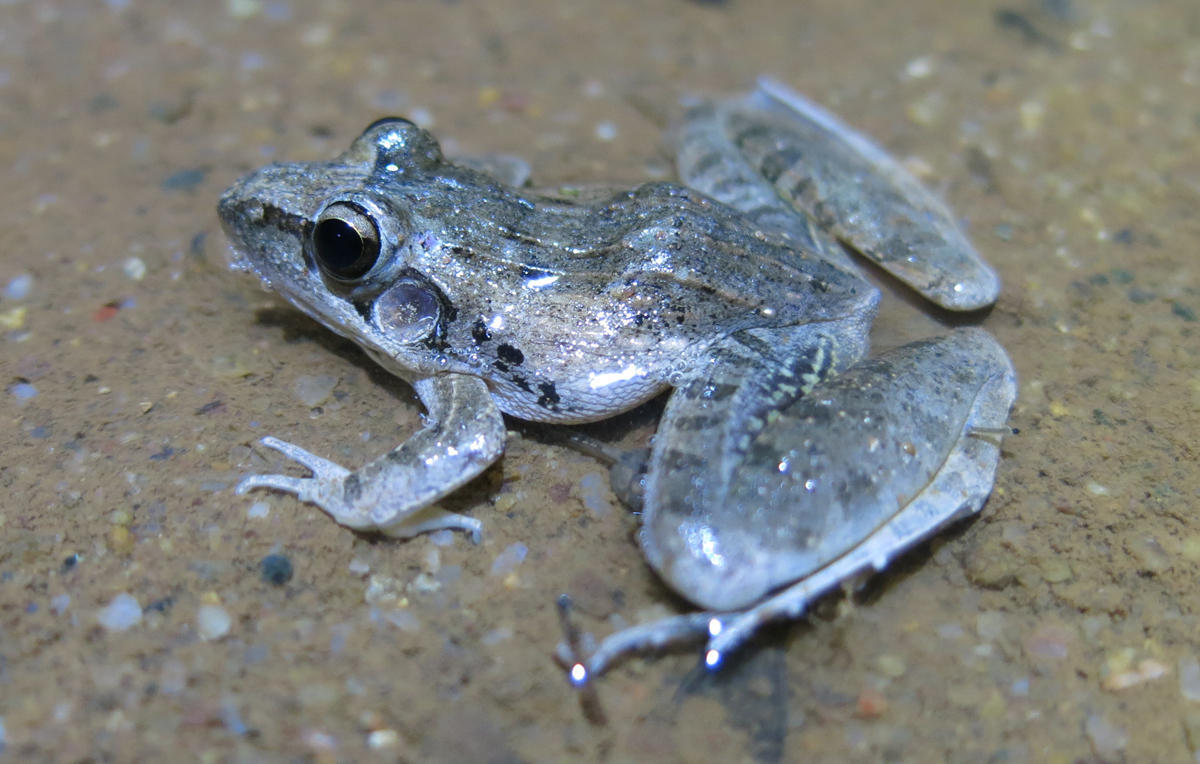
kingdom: Animalia
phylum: Chordata
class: Amphibia
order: Anura
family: Ptychadenidae
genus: Ptychadena
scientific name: Ptychadena anchietae
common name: Anchieta's ridged frog
